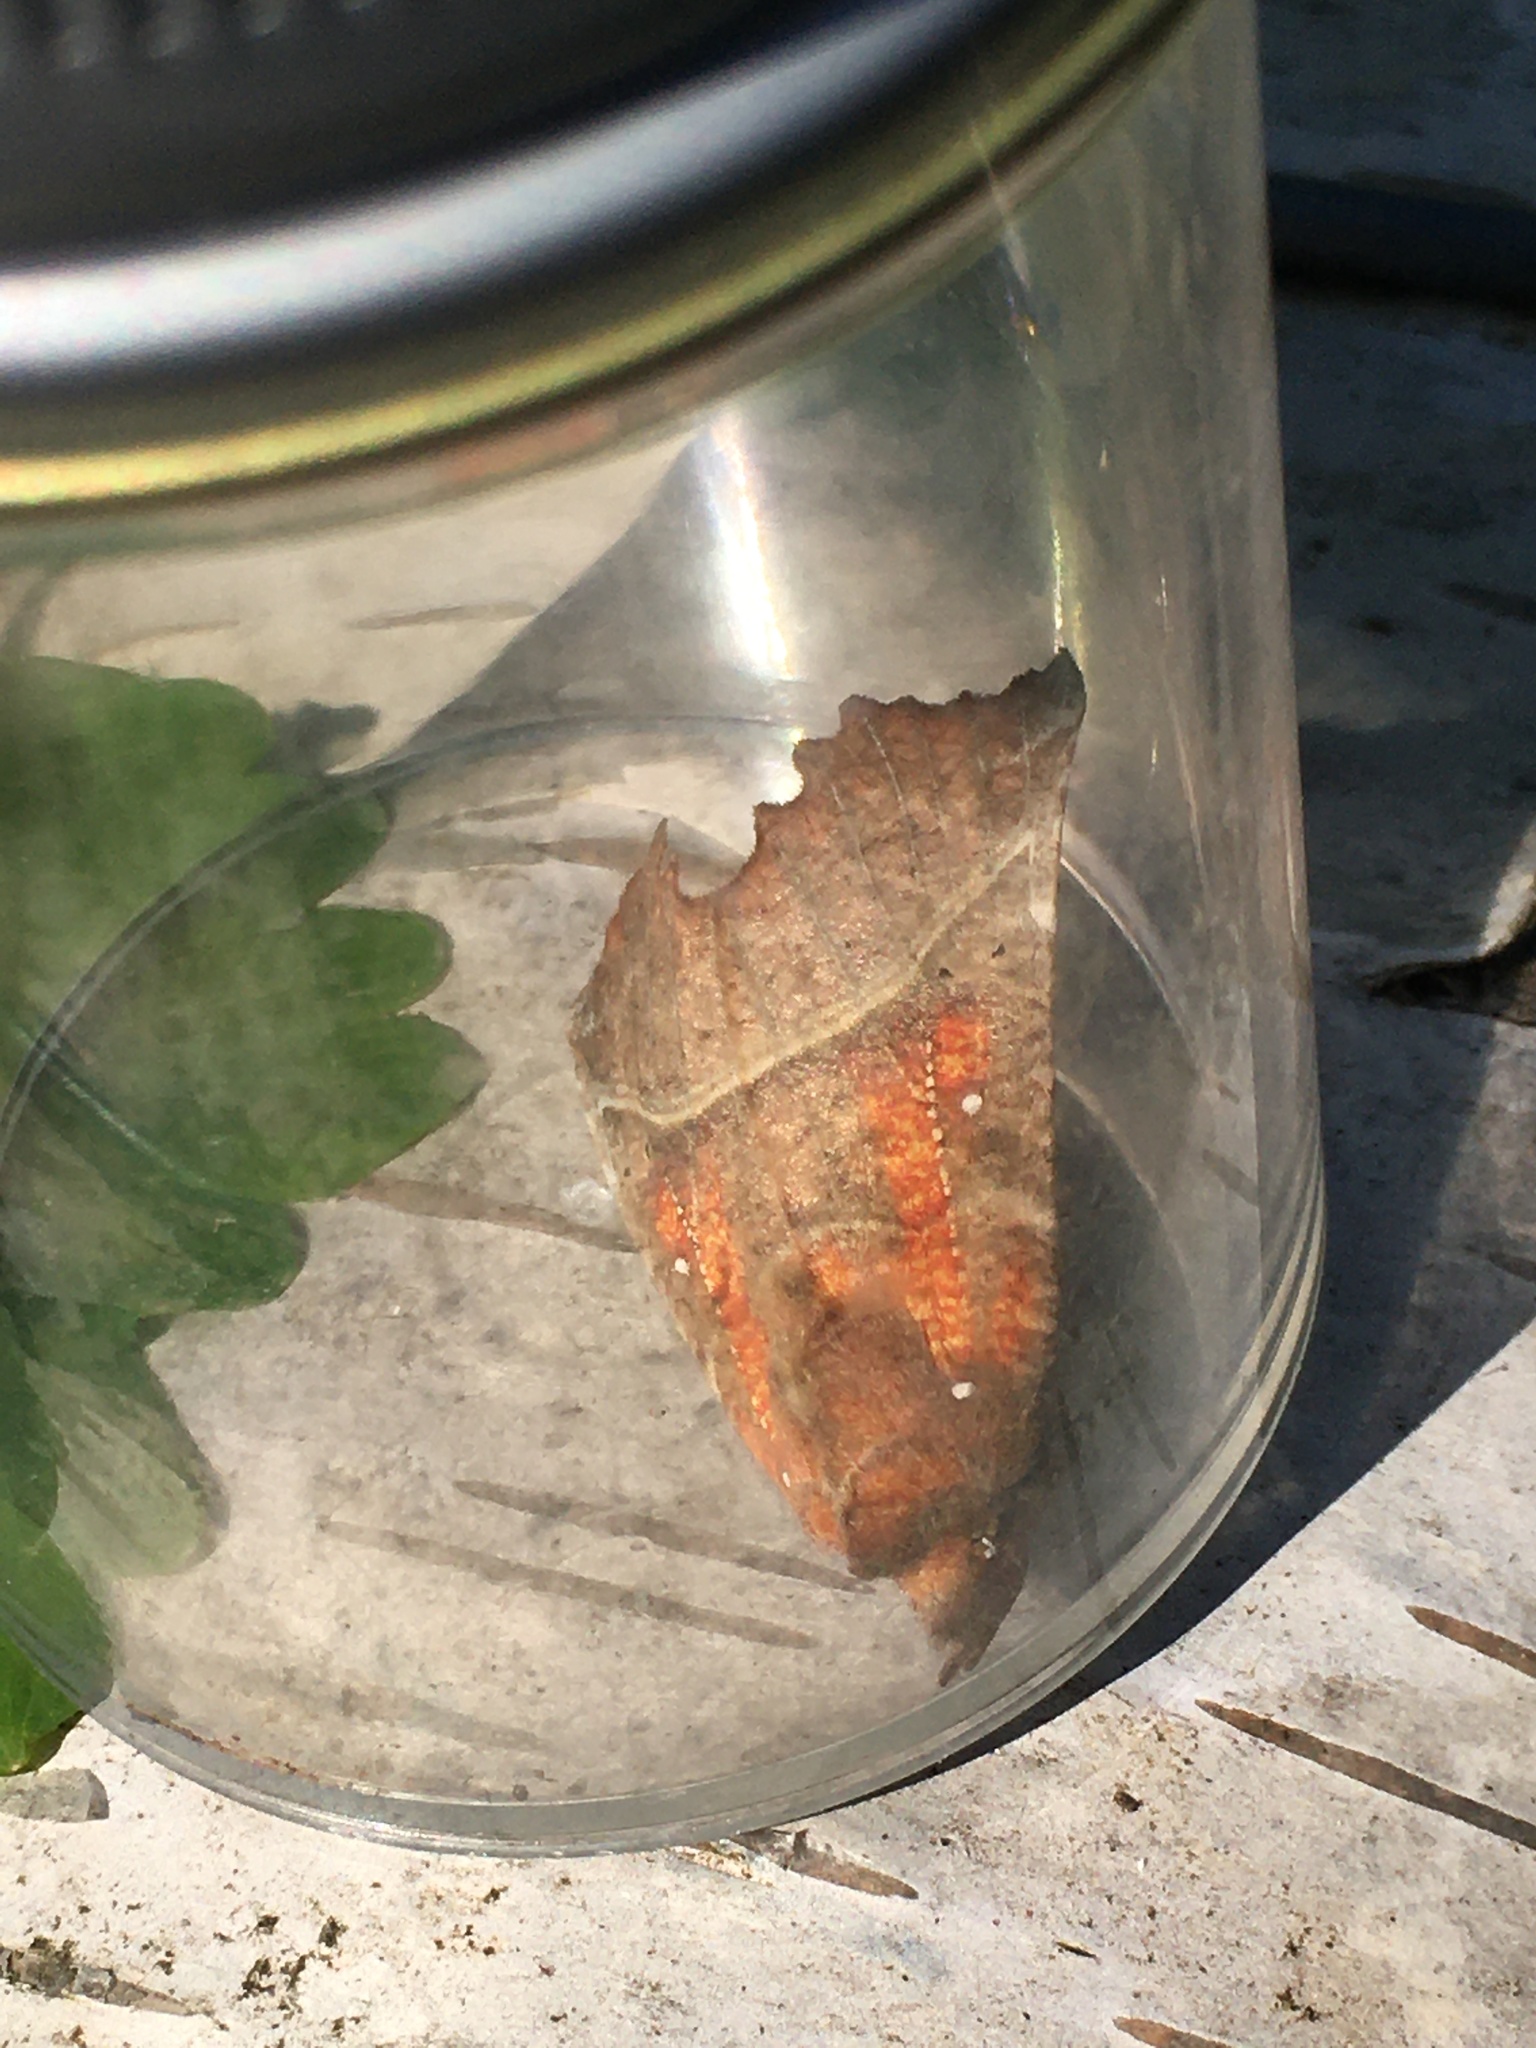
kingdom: Animalia
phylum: Arthropoda
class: Insecta
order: Lepidoptera
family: Erebidae
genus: Scoliopteryx
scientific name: Scoliopteryx libatrix
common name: Herald
